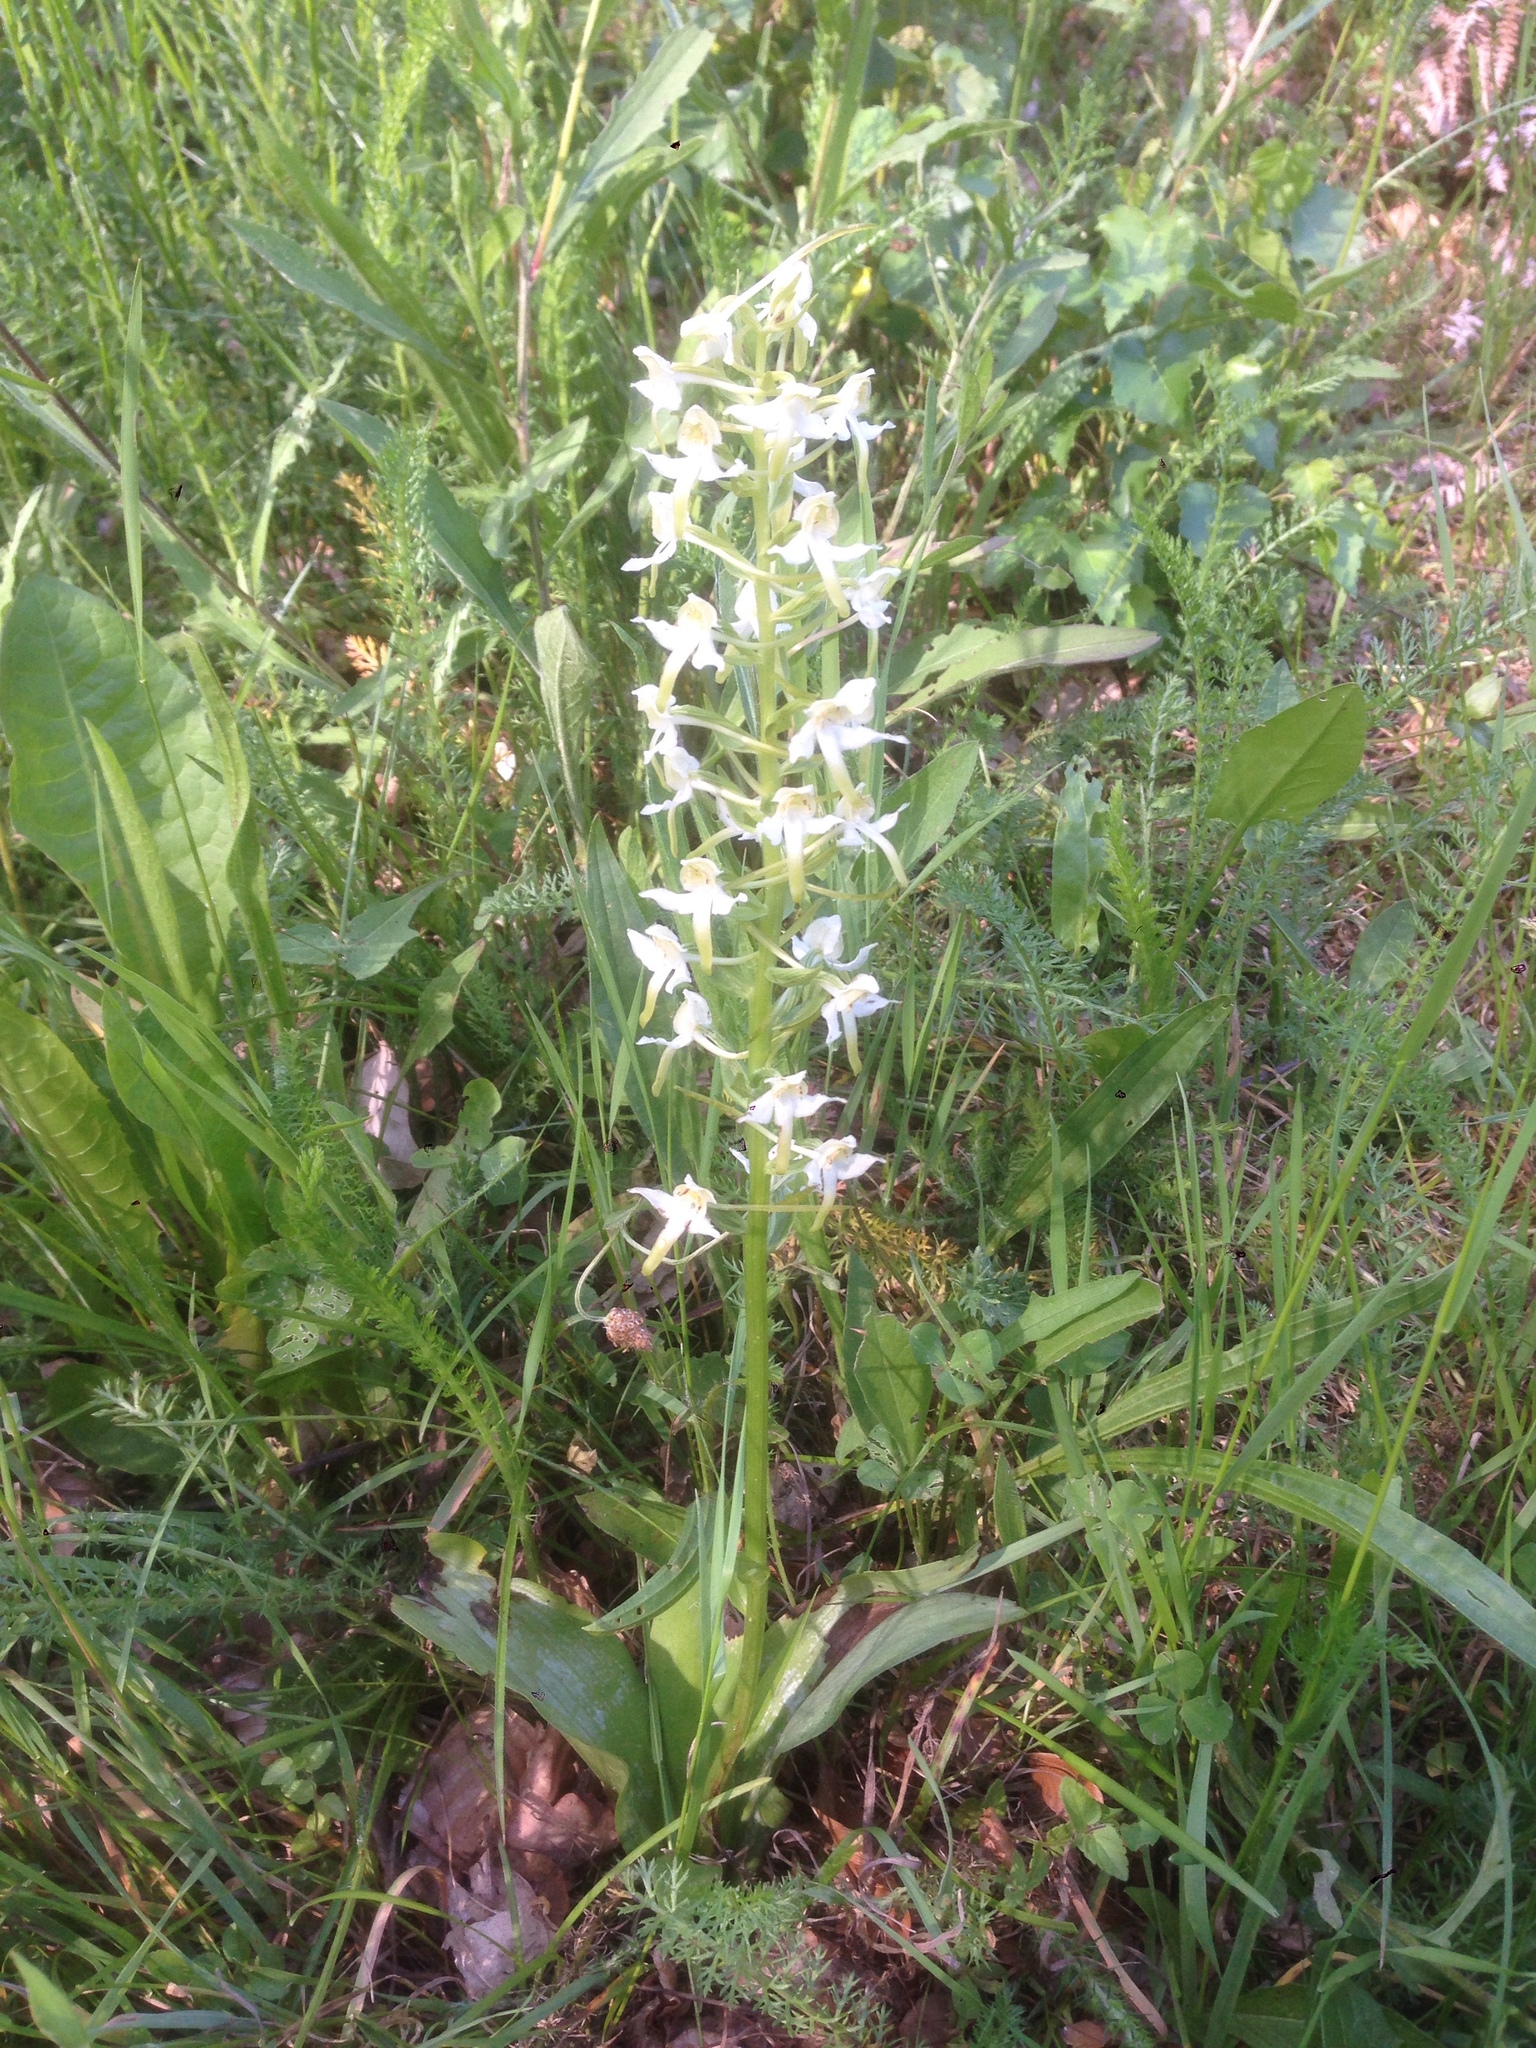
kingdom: Plantae
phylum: Tracheophyta
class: Liliopsida
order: Asparagales
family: Orchidaceae
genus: Platanthera
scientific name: Platanthera chlorantha
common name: Greater butterfly-orchid
